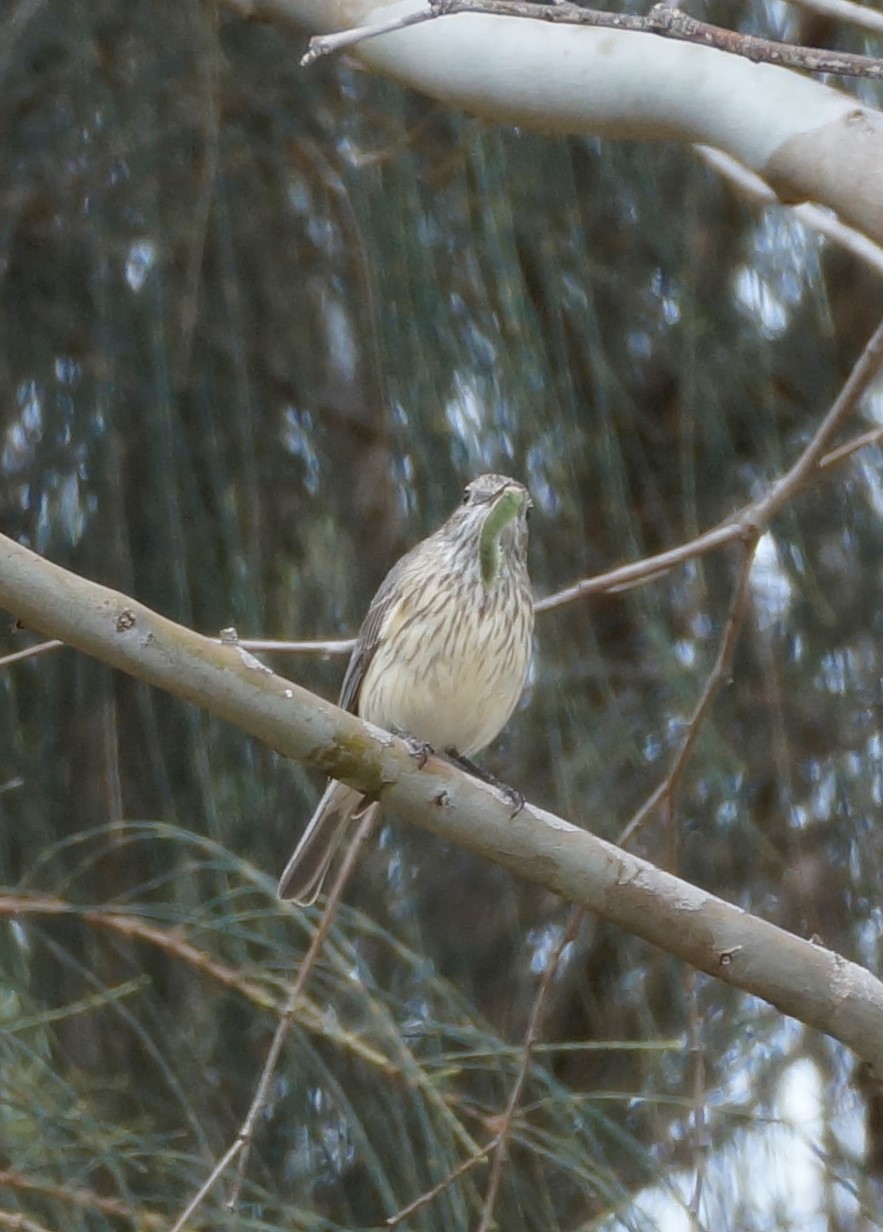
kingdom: Animalia
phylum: Chordata
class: Aves
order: Passeriformes
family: Pachycephalidae
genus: Pachycephala
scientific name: Pachycephala rufiventris
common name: Rufous whistler
